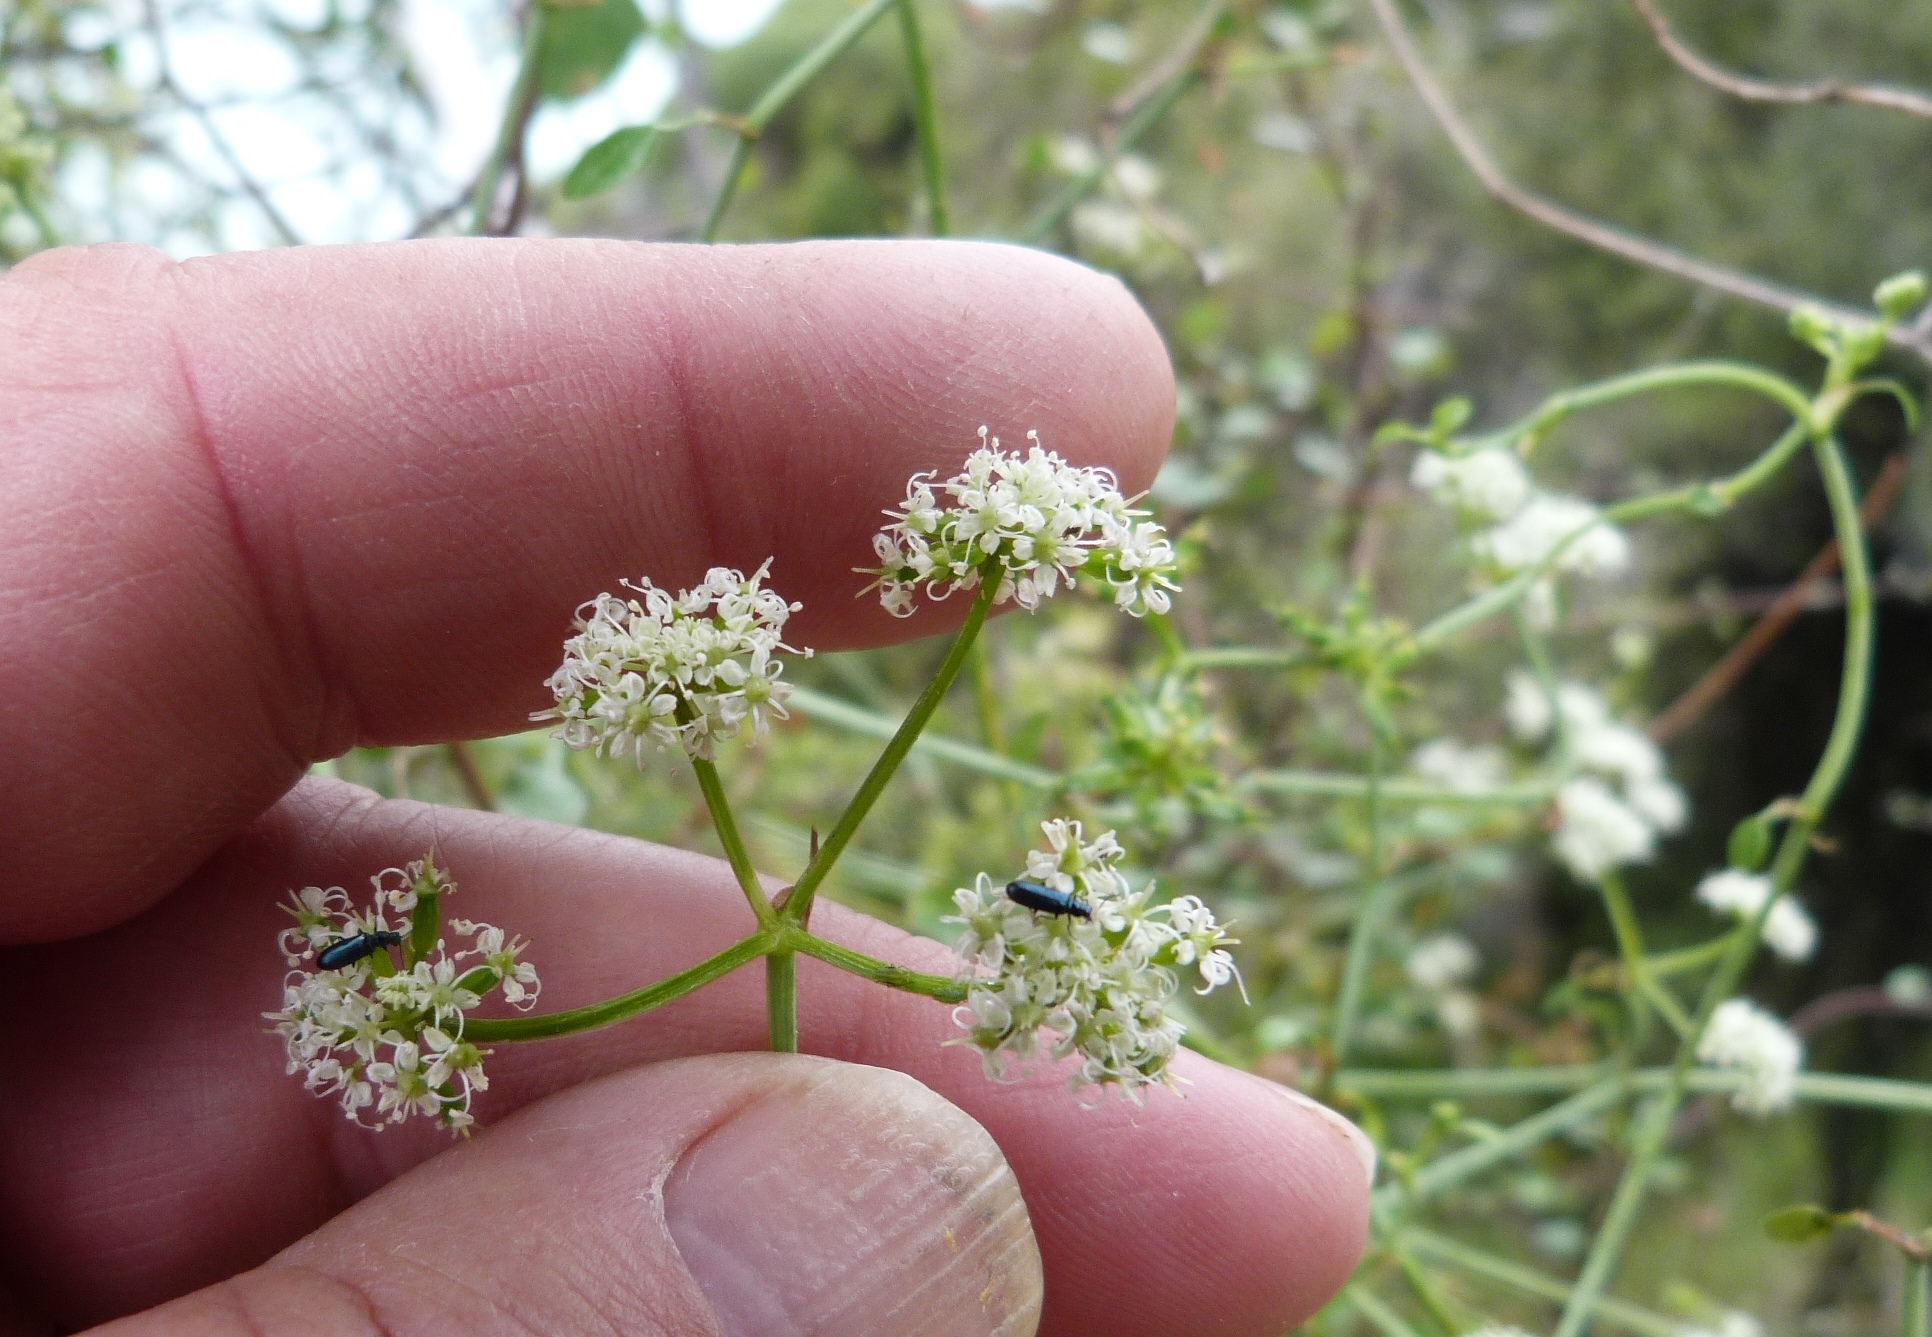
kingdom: Plantae
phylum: Tracheophyta
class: Magnoliopsida
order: Apiales
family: Apiaceae
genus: Scandia
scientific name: Scandia geniculata
